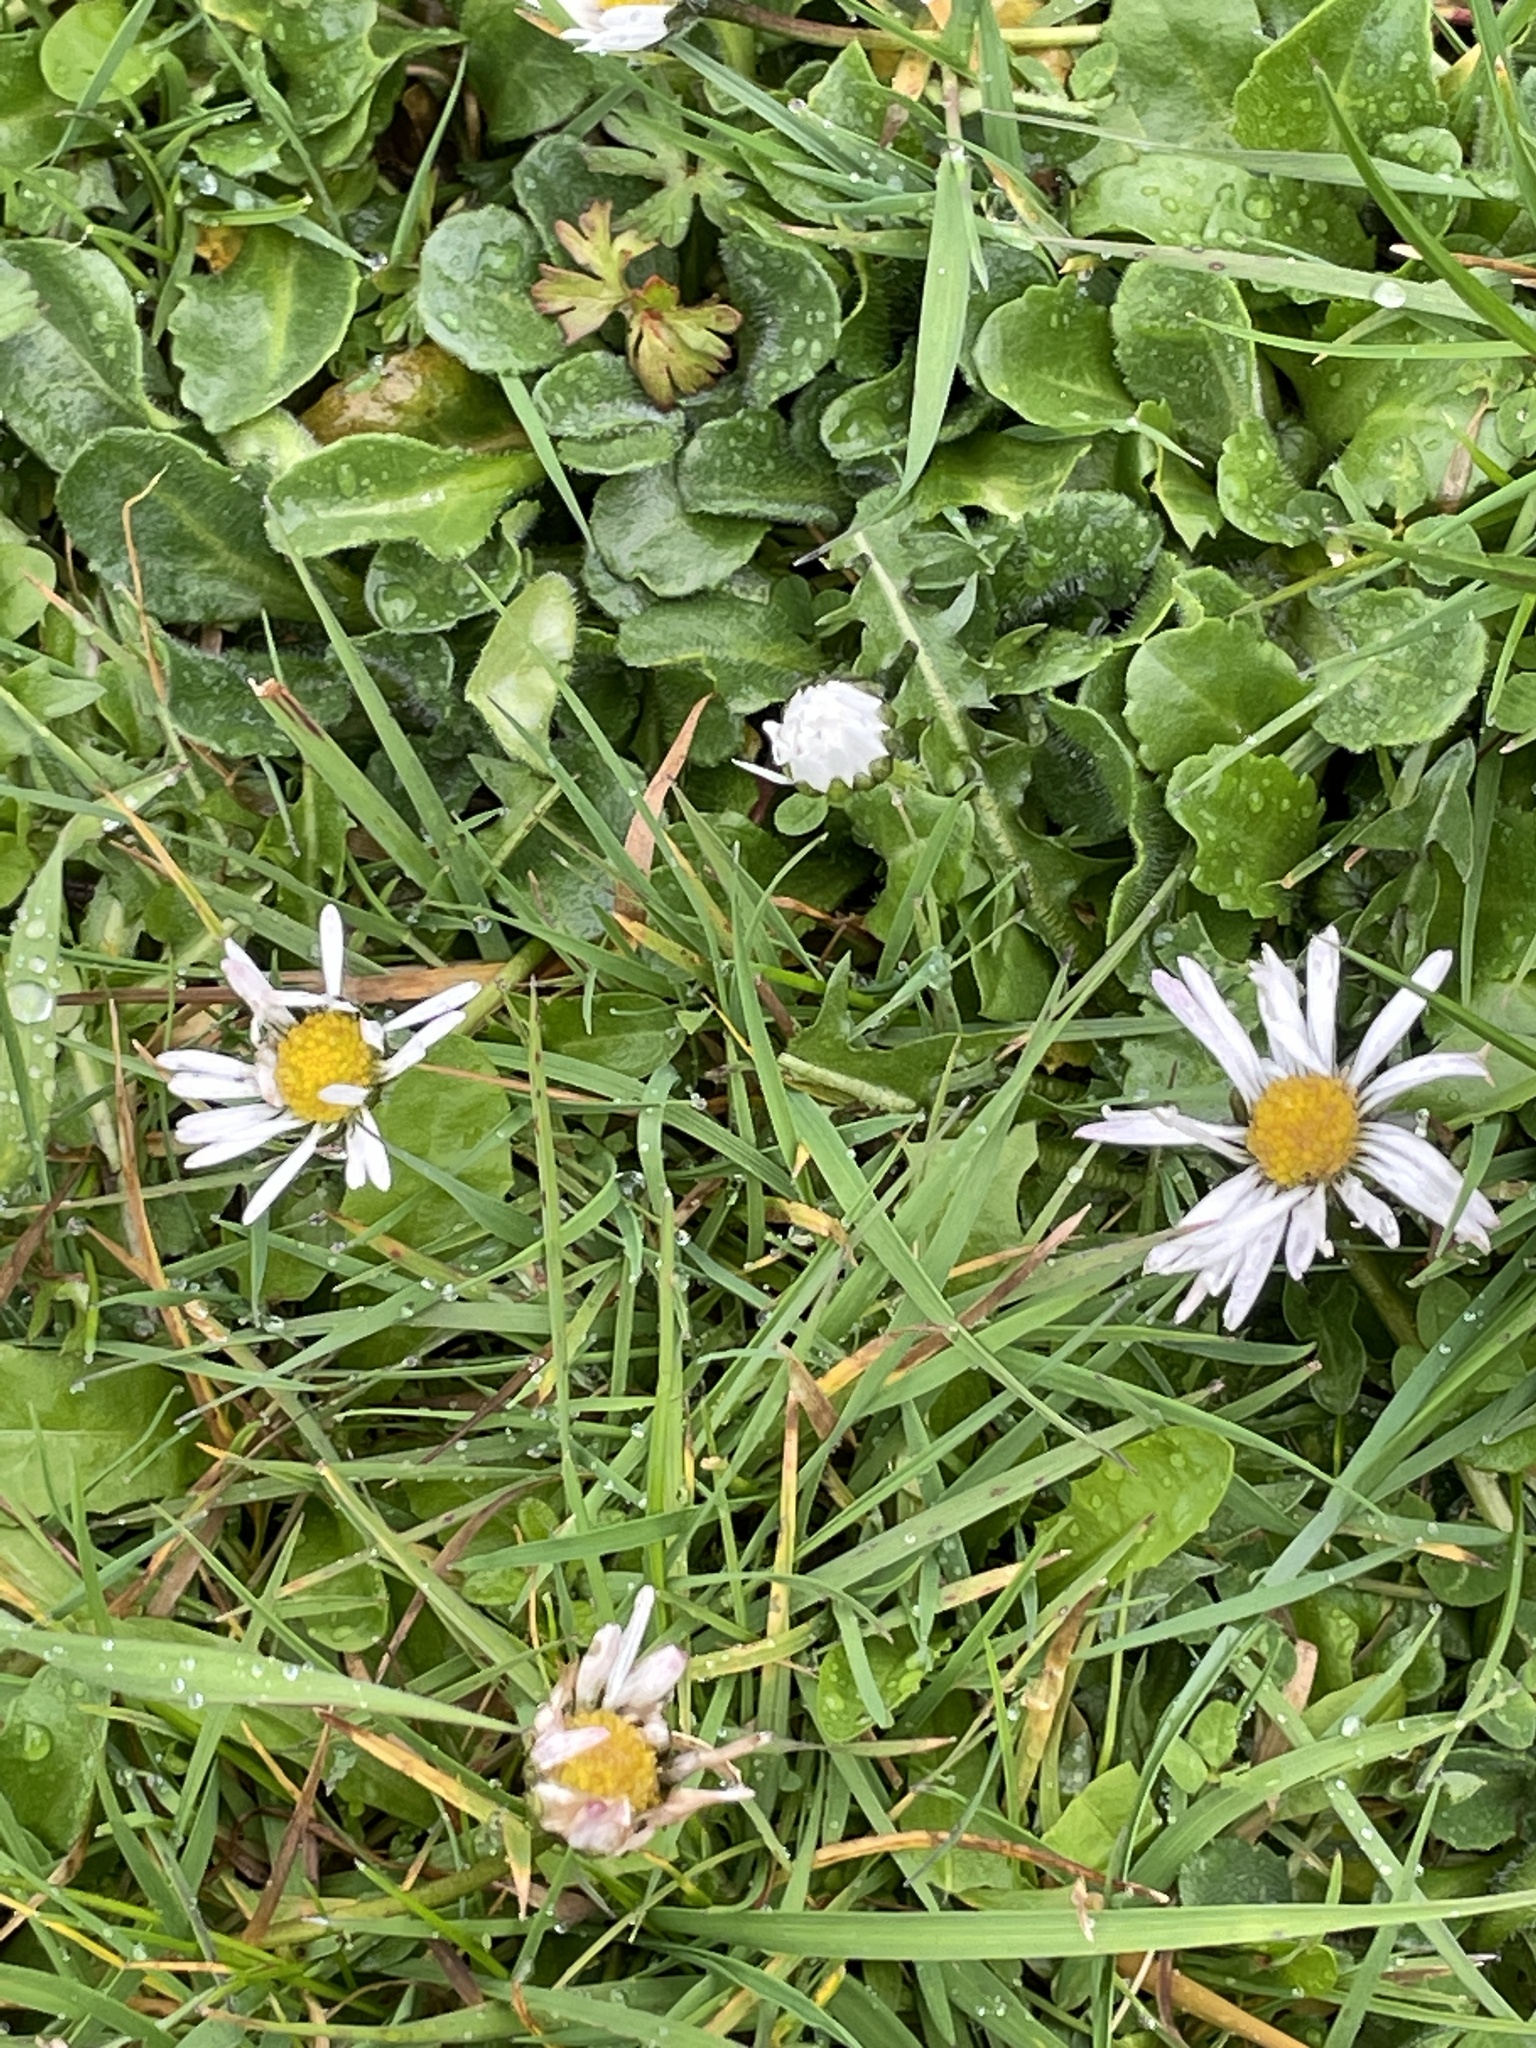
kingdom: Plantae
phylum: Tracheophyta
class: Magnoliopsida
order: Asterales
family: Asteraceae
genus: Bellis
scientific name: Bellis perennis
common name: Lawndaisy
